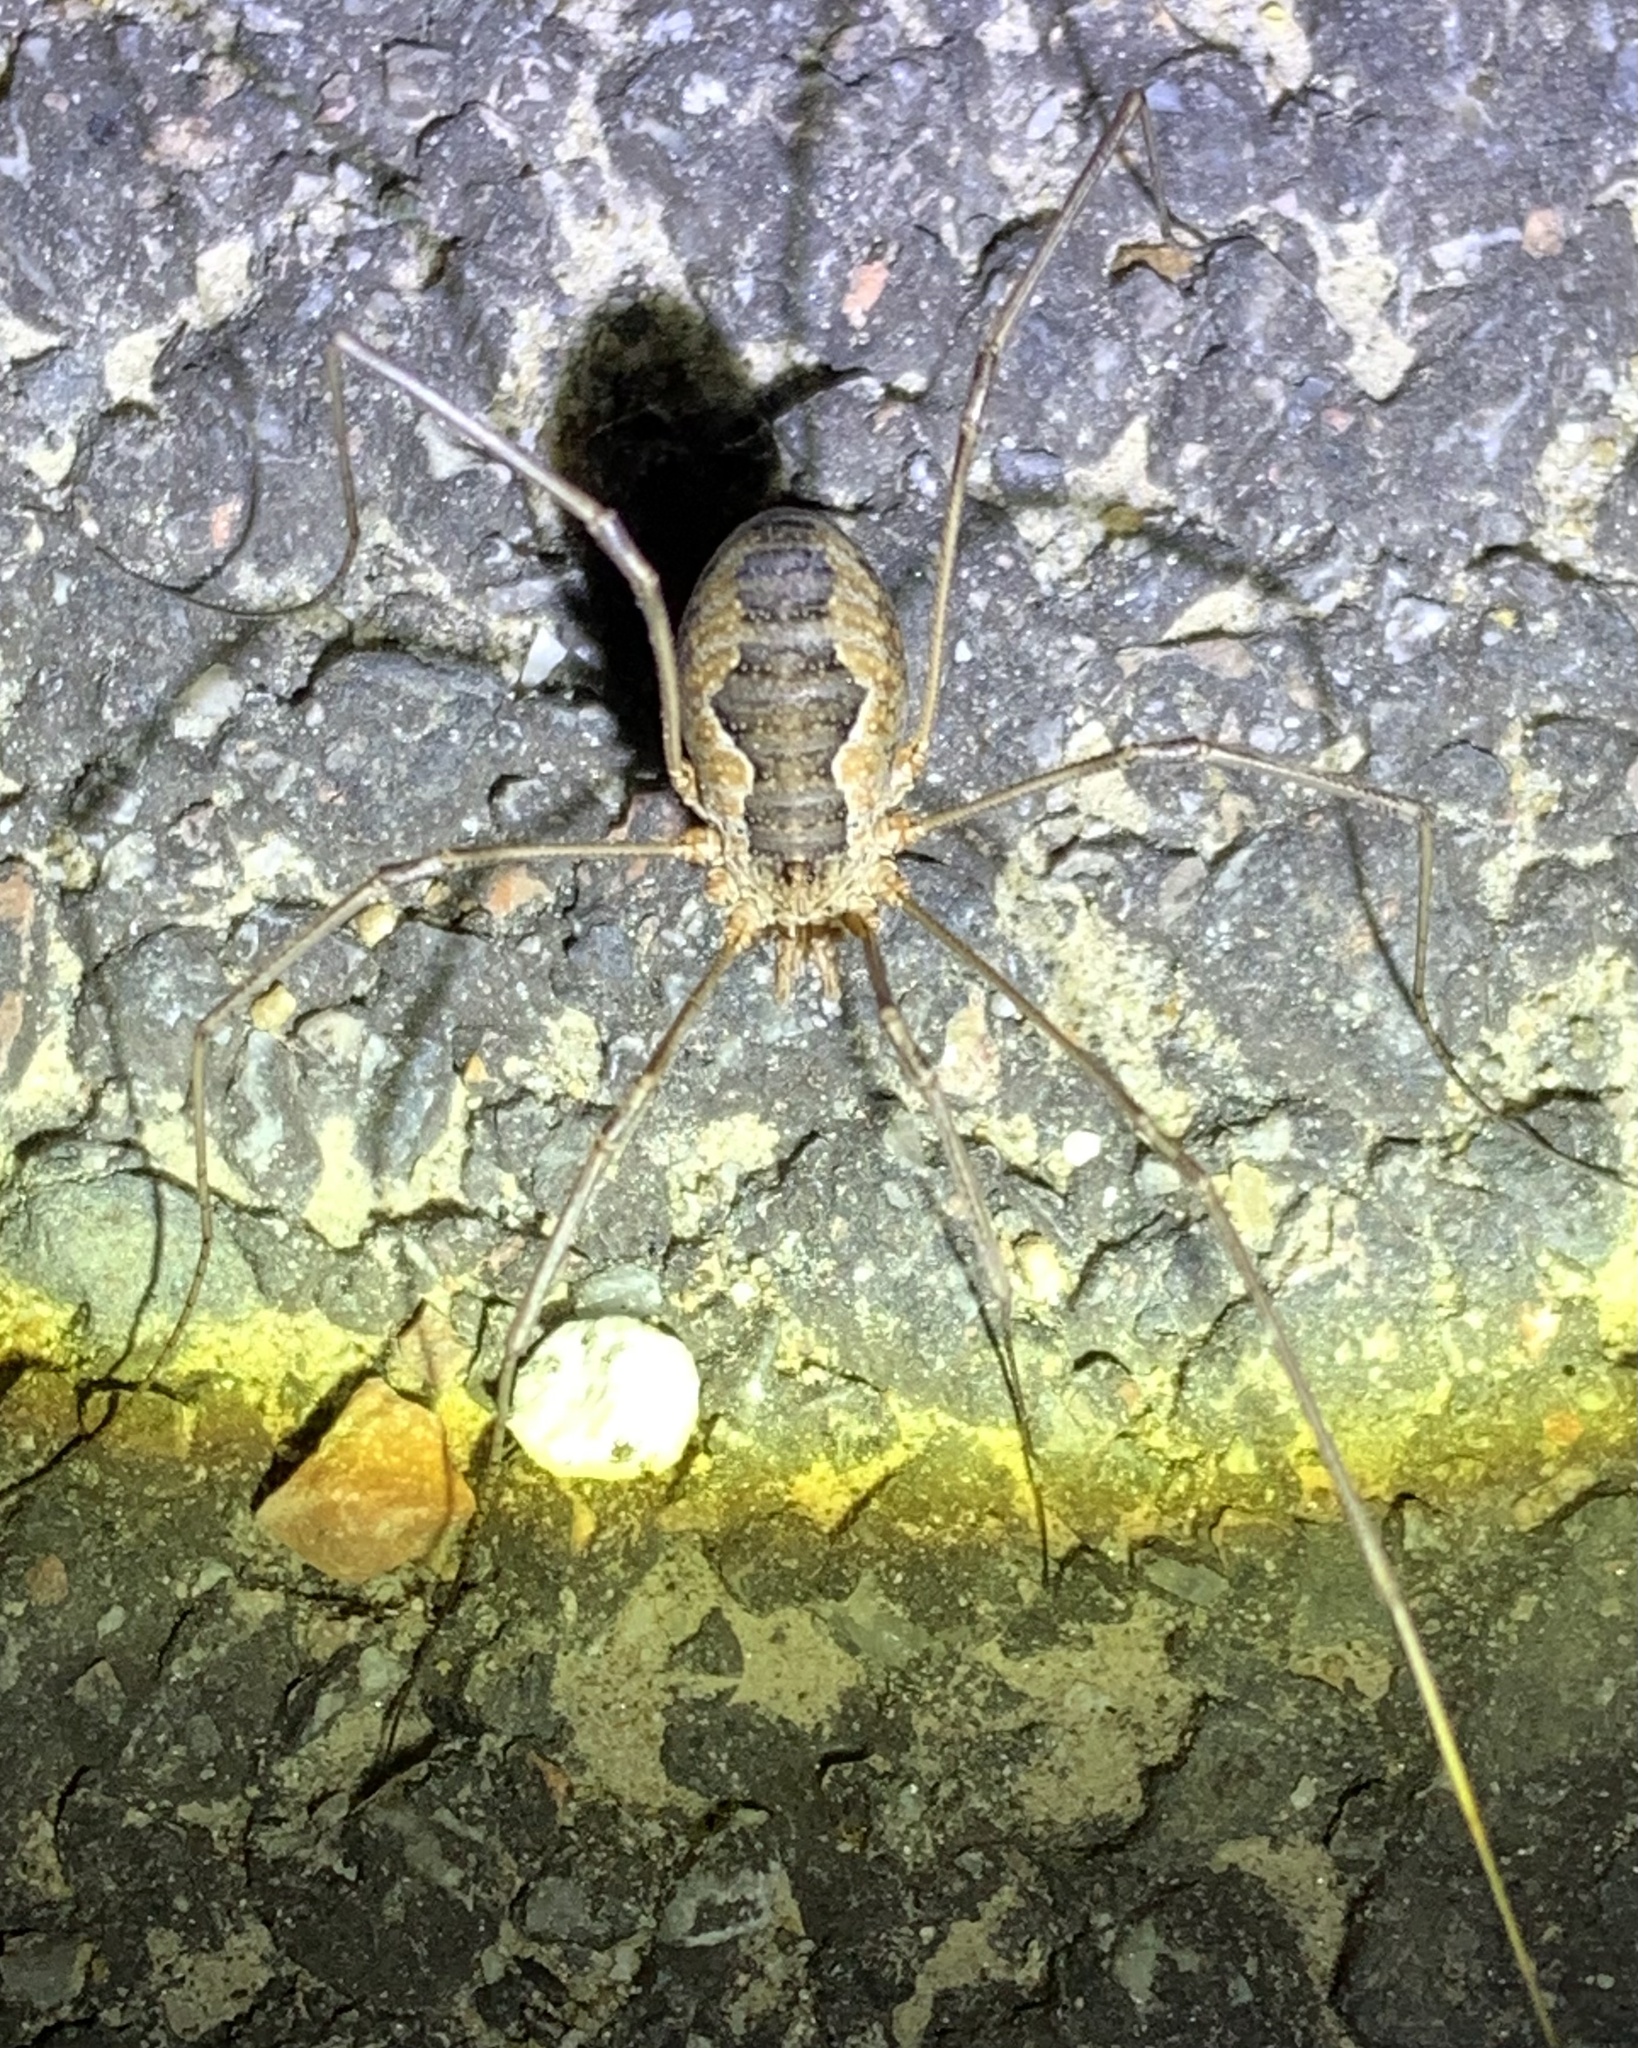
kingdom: Animalia
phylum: Arthropoda
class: Arachnida
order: Opiliones
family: Phalangiidae
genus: Phalangium
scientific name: Phalangium opilio
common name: Daddy longleg
